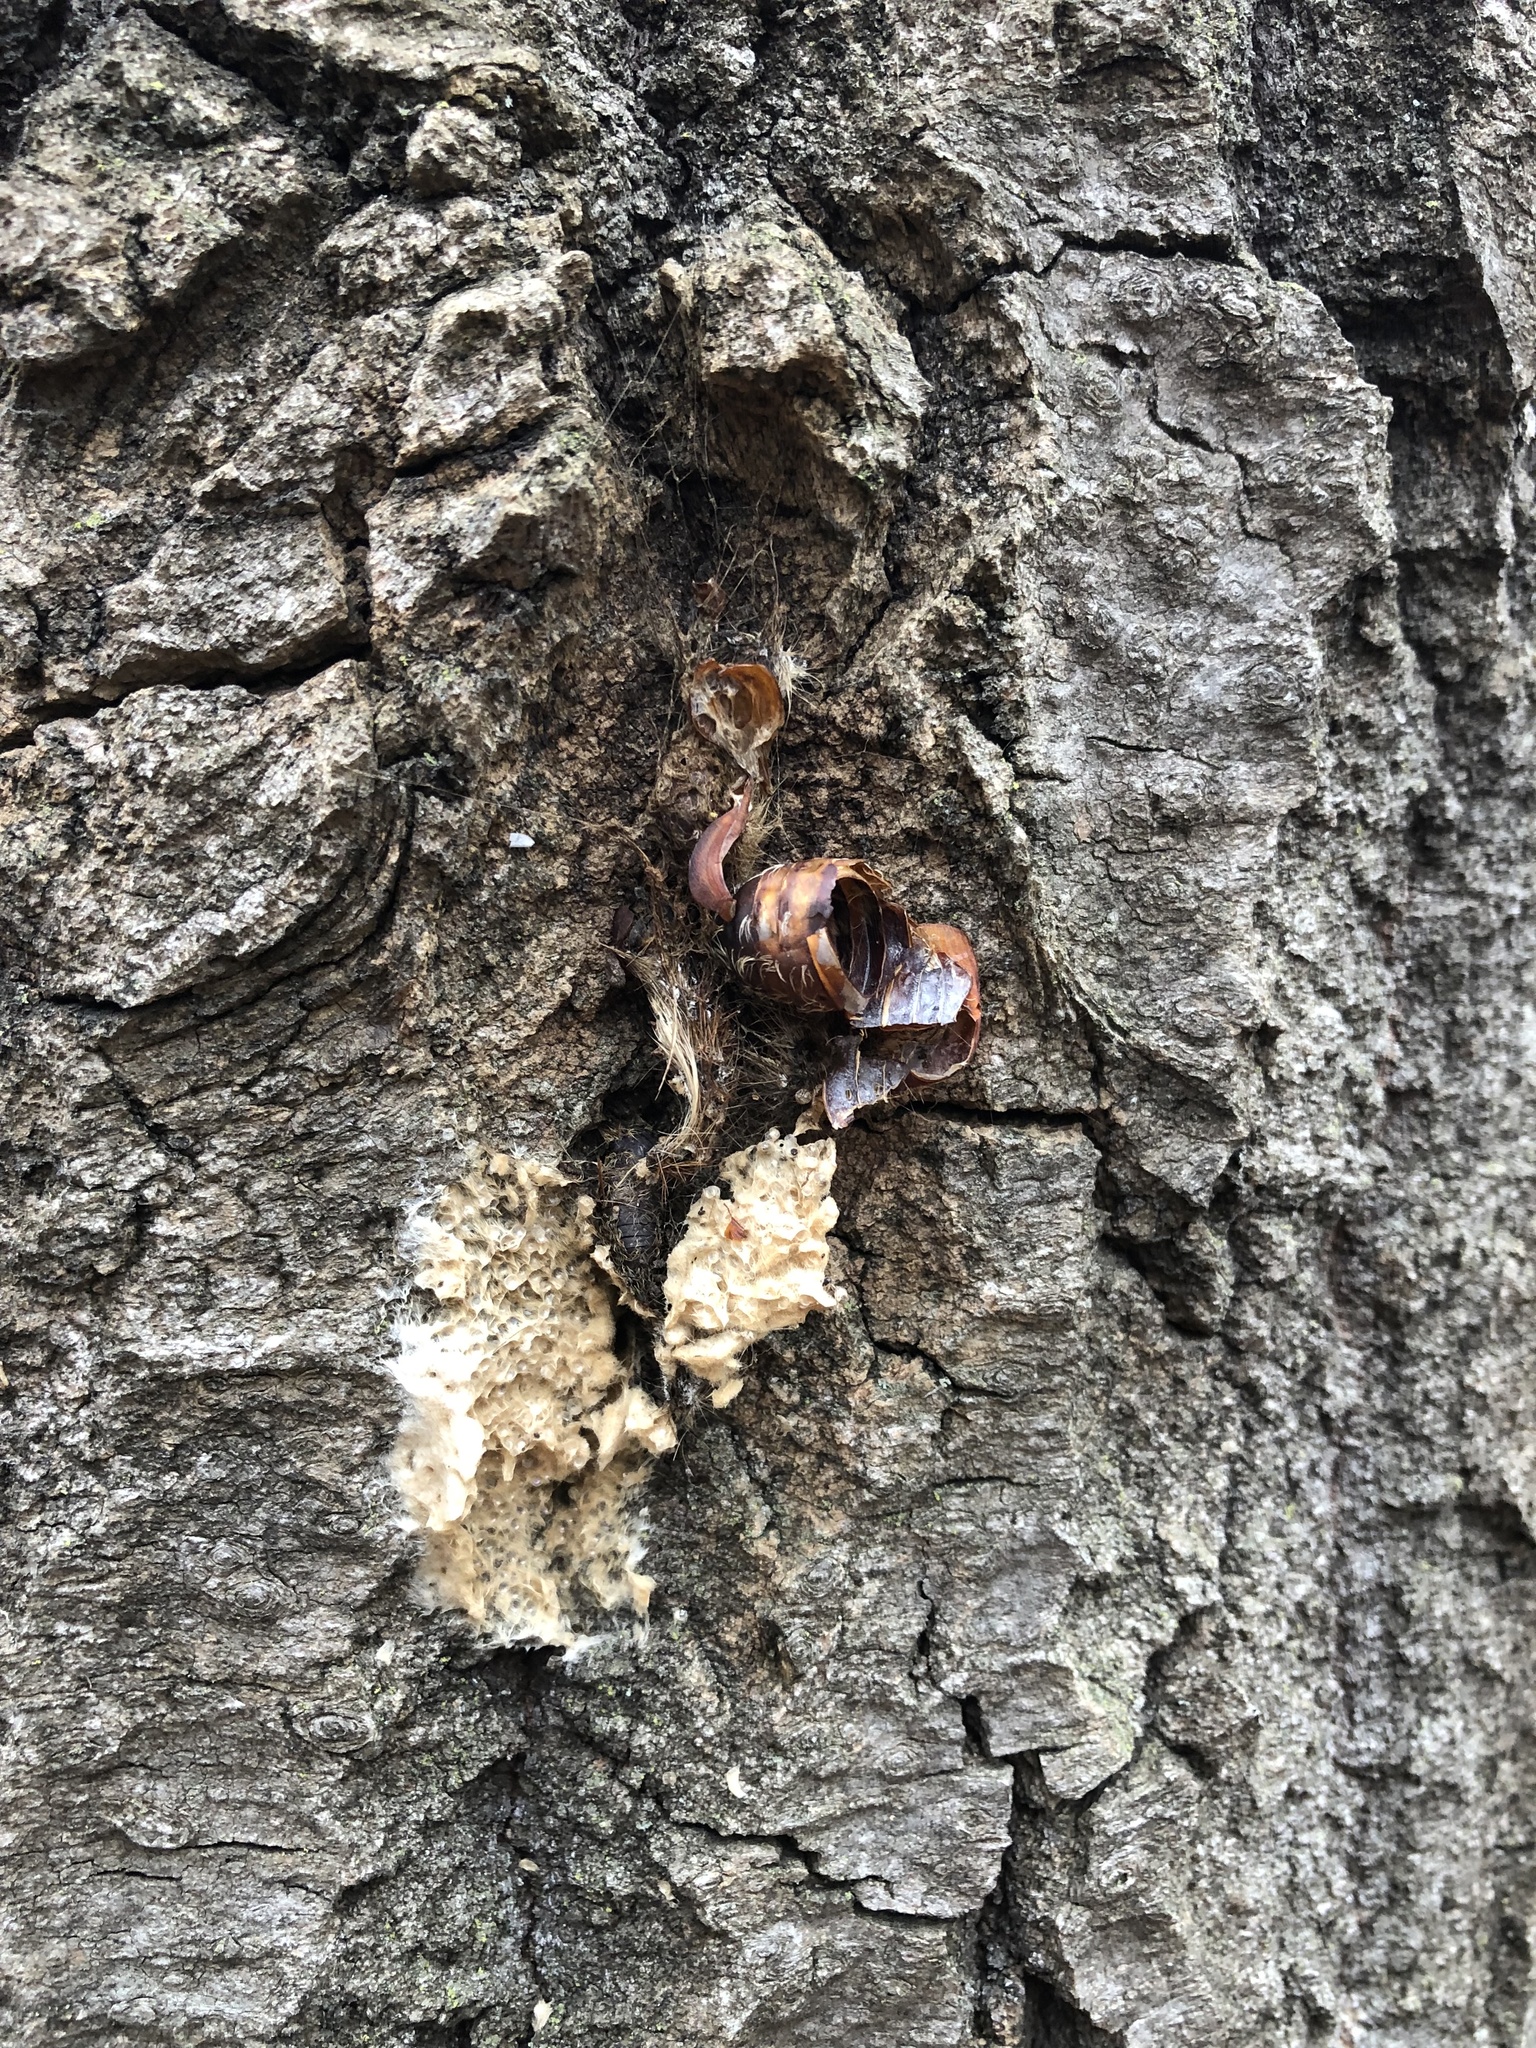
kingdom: Animalia
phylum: Arthropoda
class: Insecta
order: Lepidoptera
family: Erebidae
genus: Lymantria
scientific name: Lymantria dispar
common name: Gypsy moth
